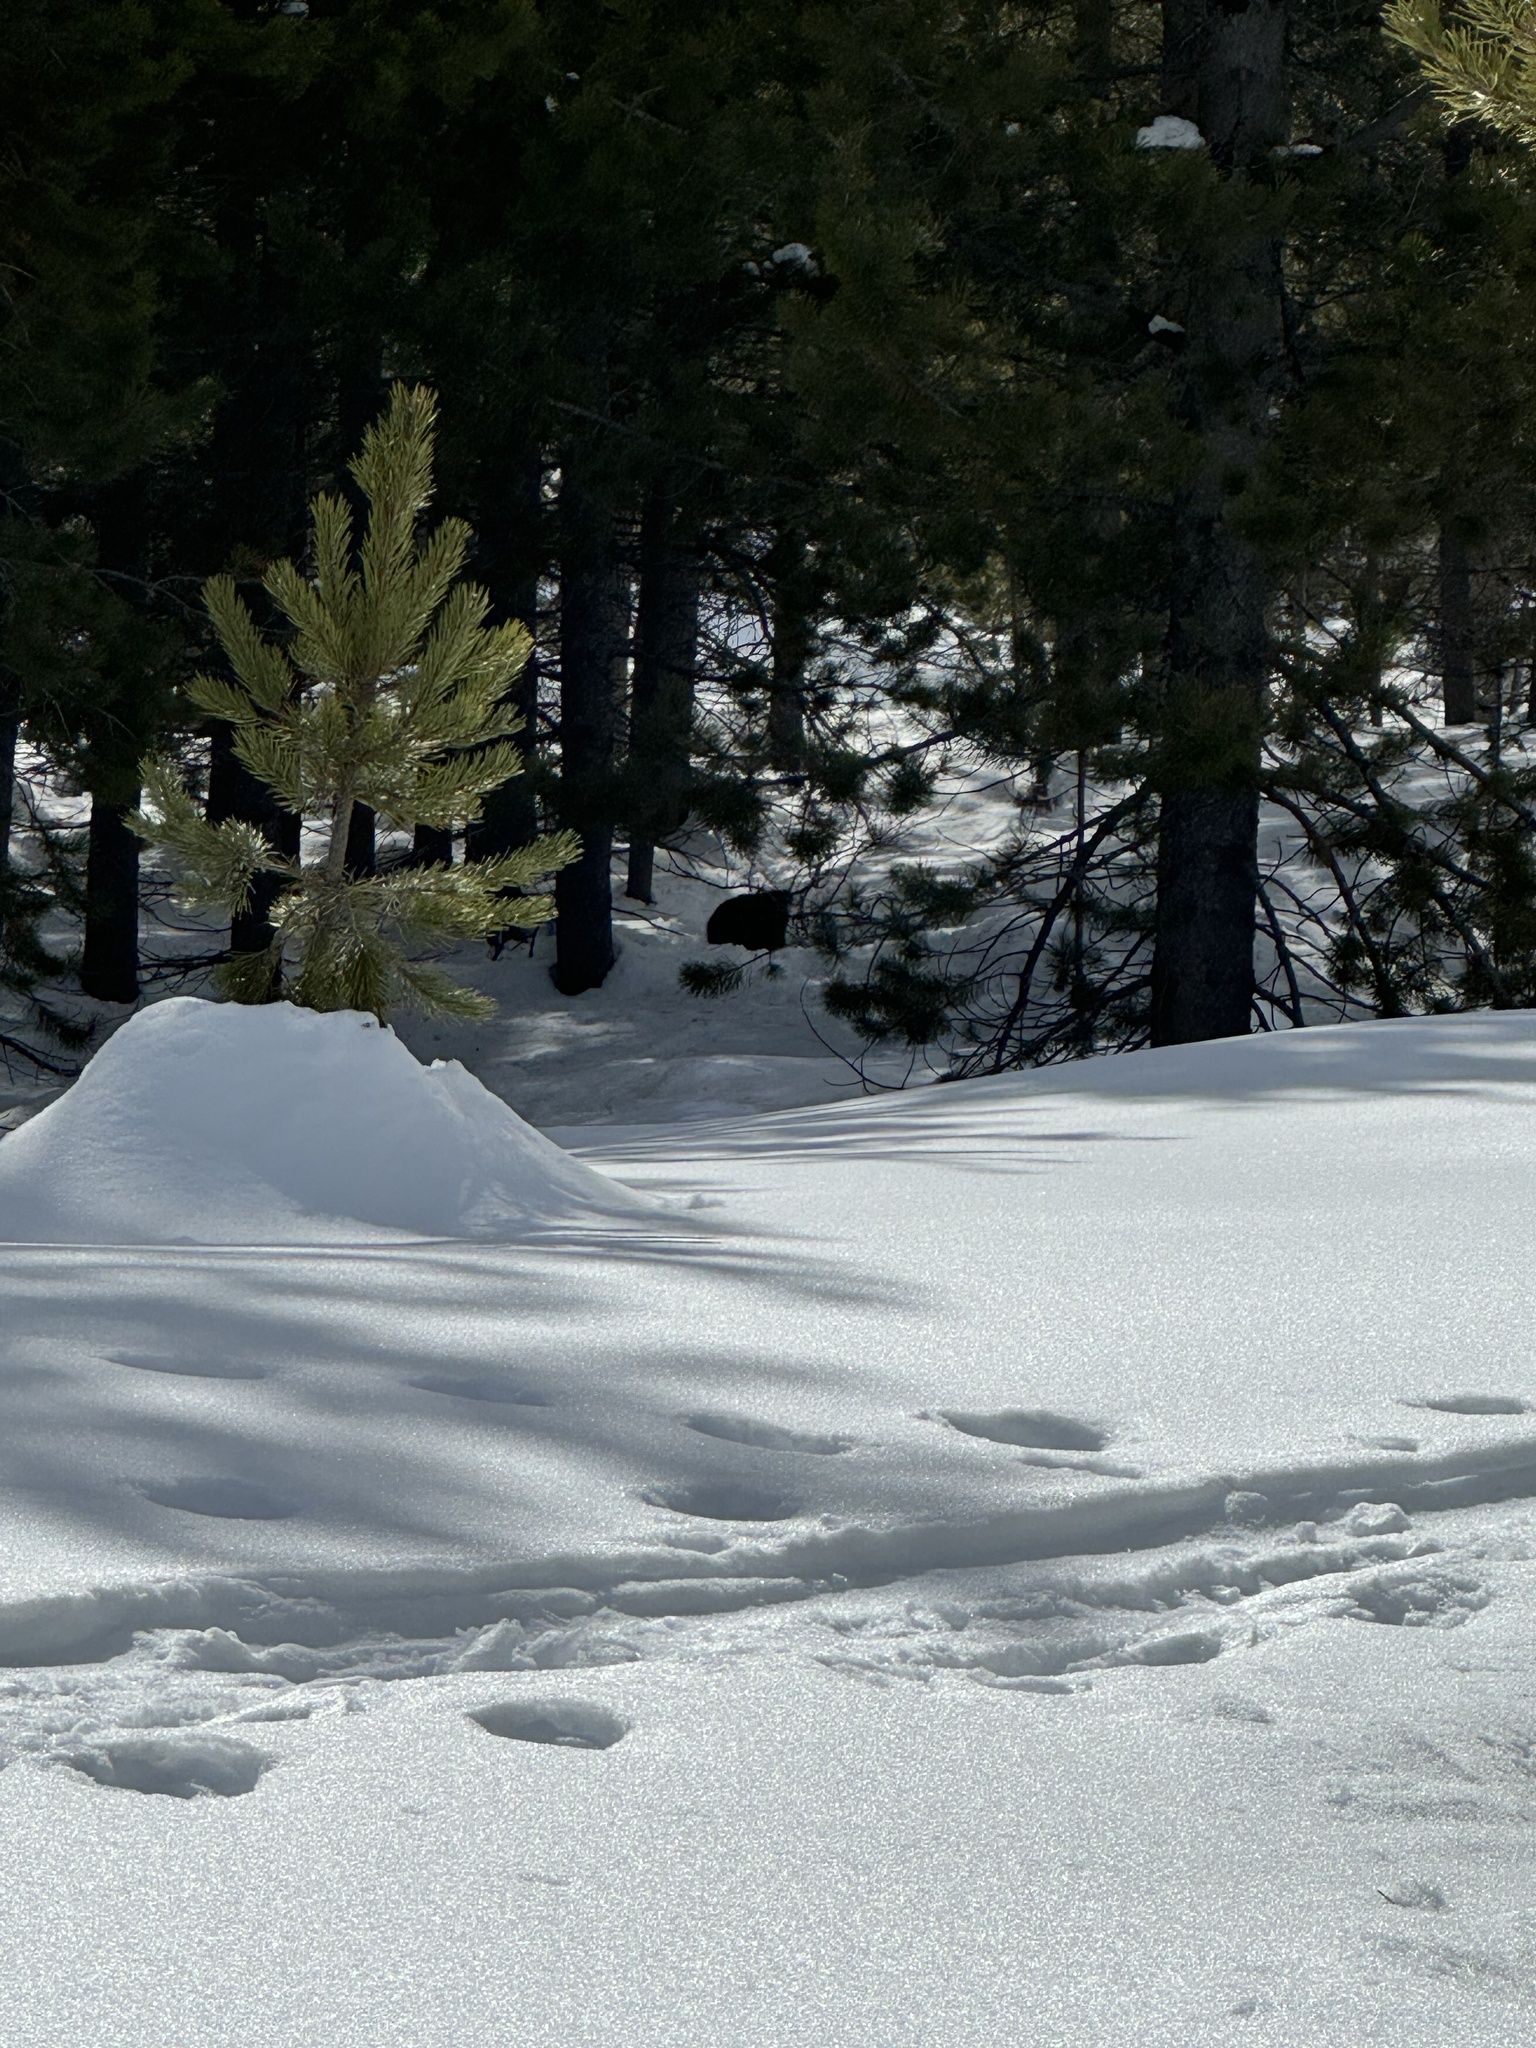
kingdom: Animalia
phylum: Chordata
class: Mammalia
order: Rodentia
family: Castoridae
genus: Castor
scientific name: Castor canadensis
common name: American beaver
